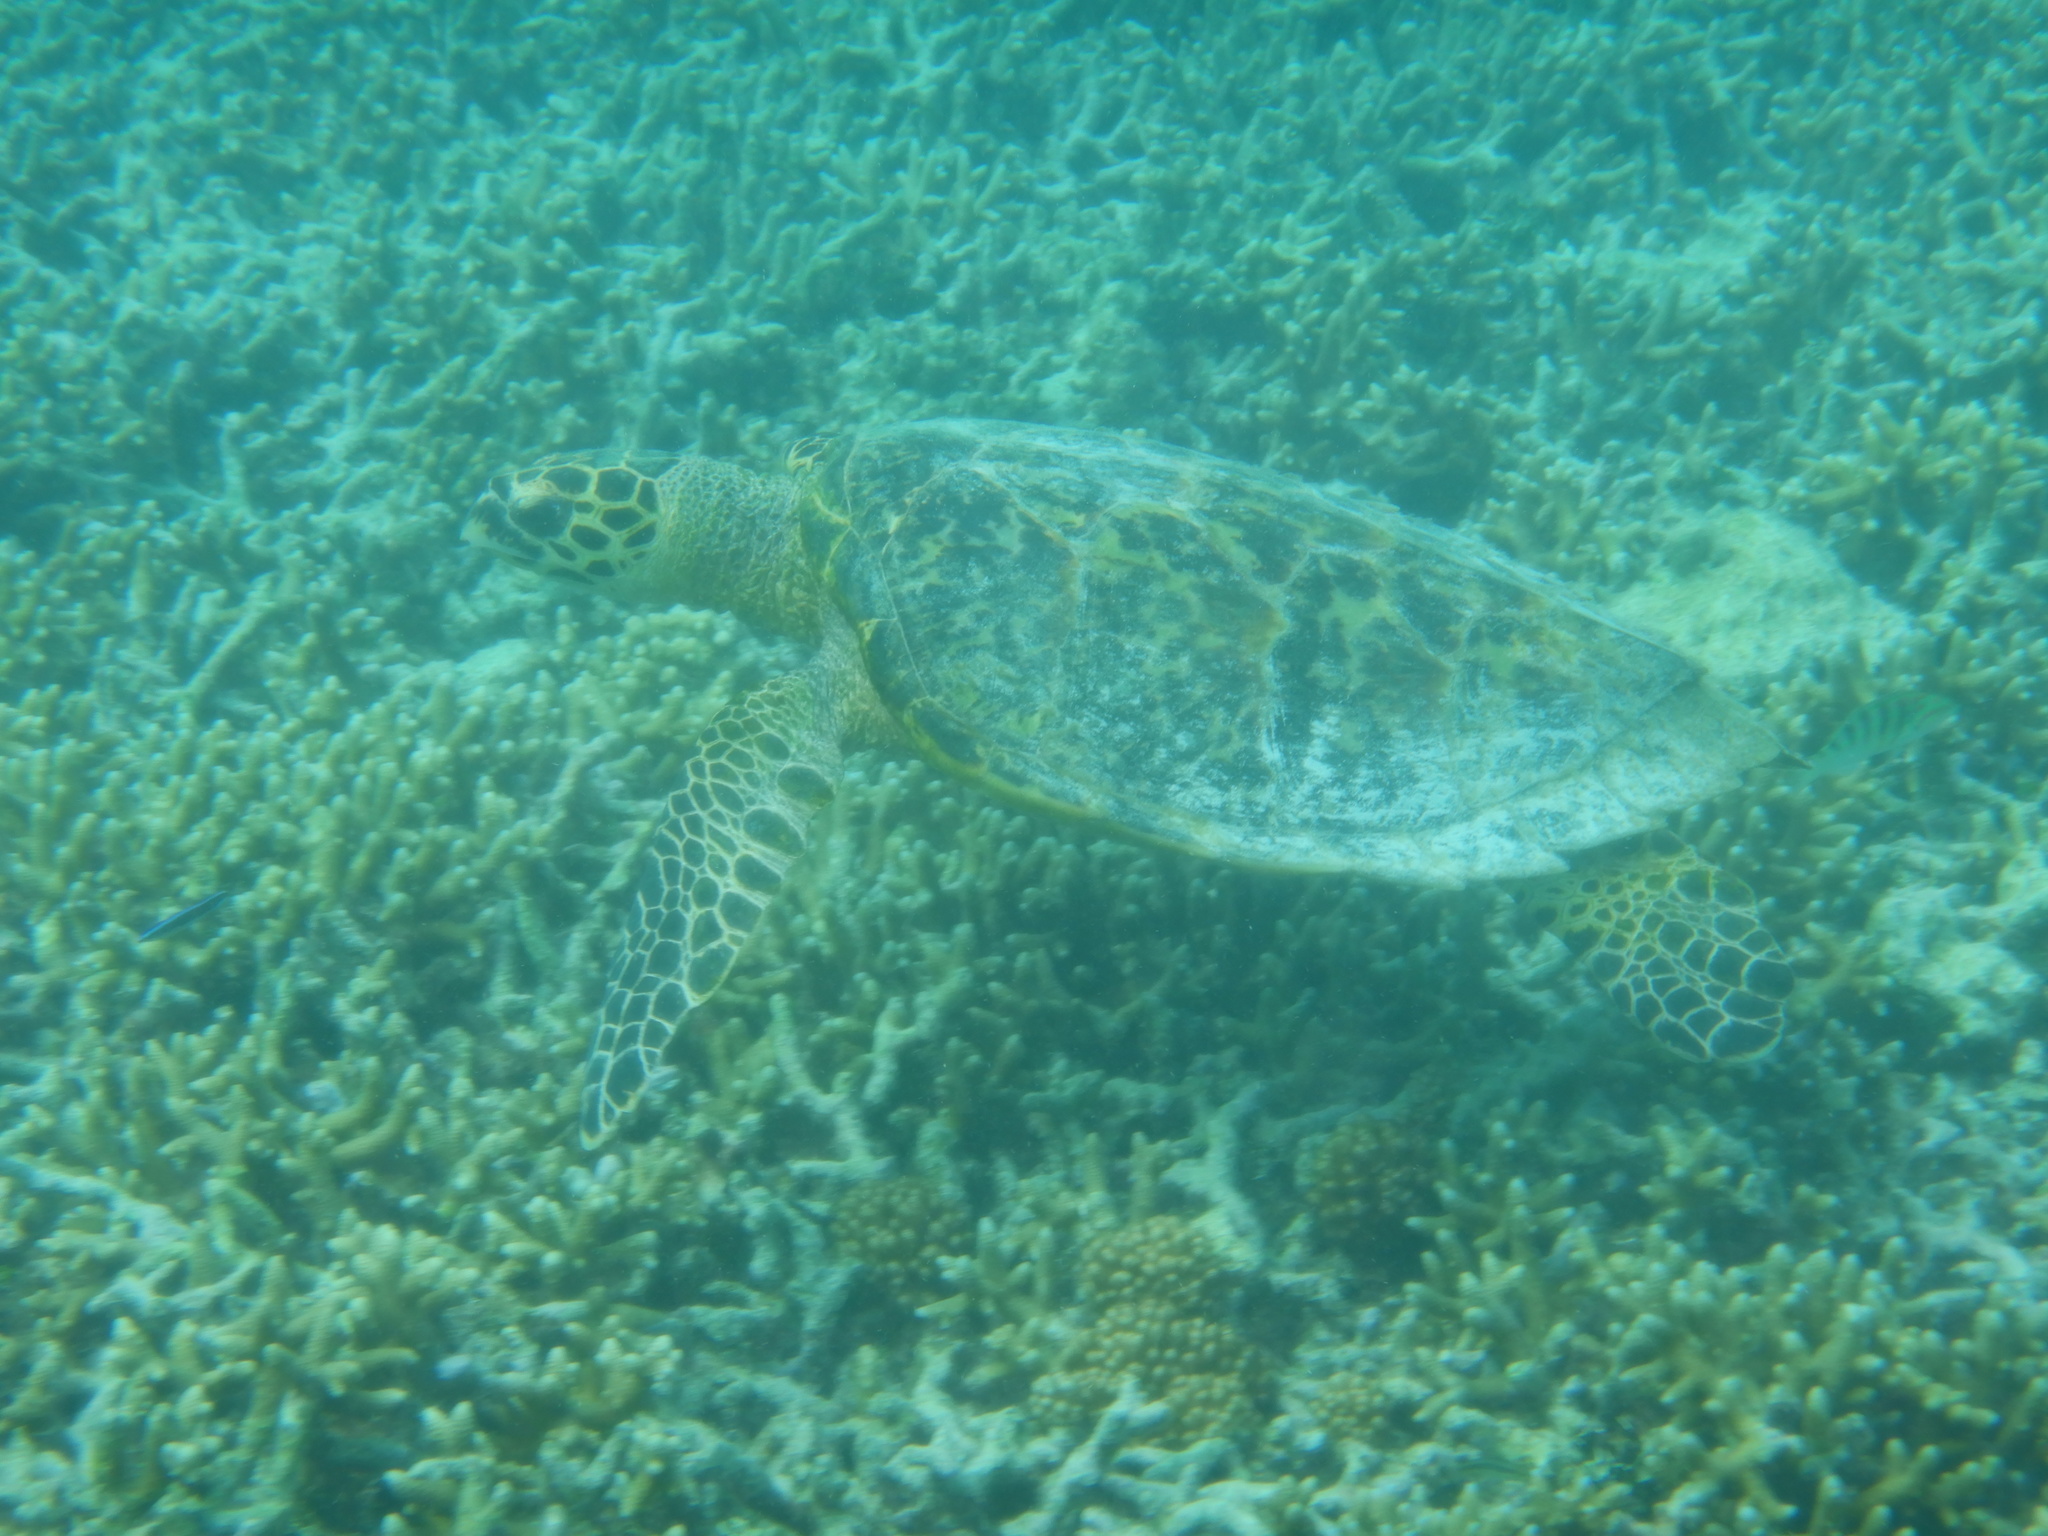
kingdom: Animalia
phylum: Chordata
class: Testudines
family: Cheloniidae
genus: Eretmochelys
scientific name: Eretmochelys imbricata
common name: Hawksbill turtle
